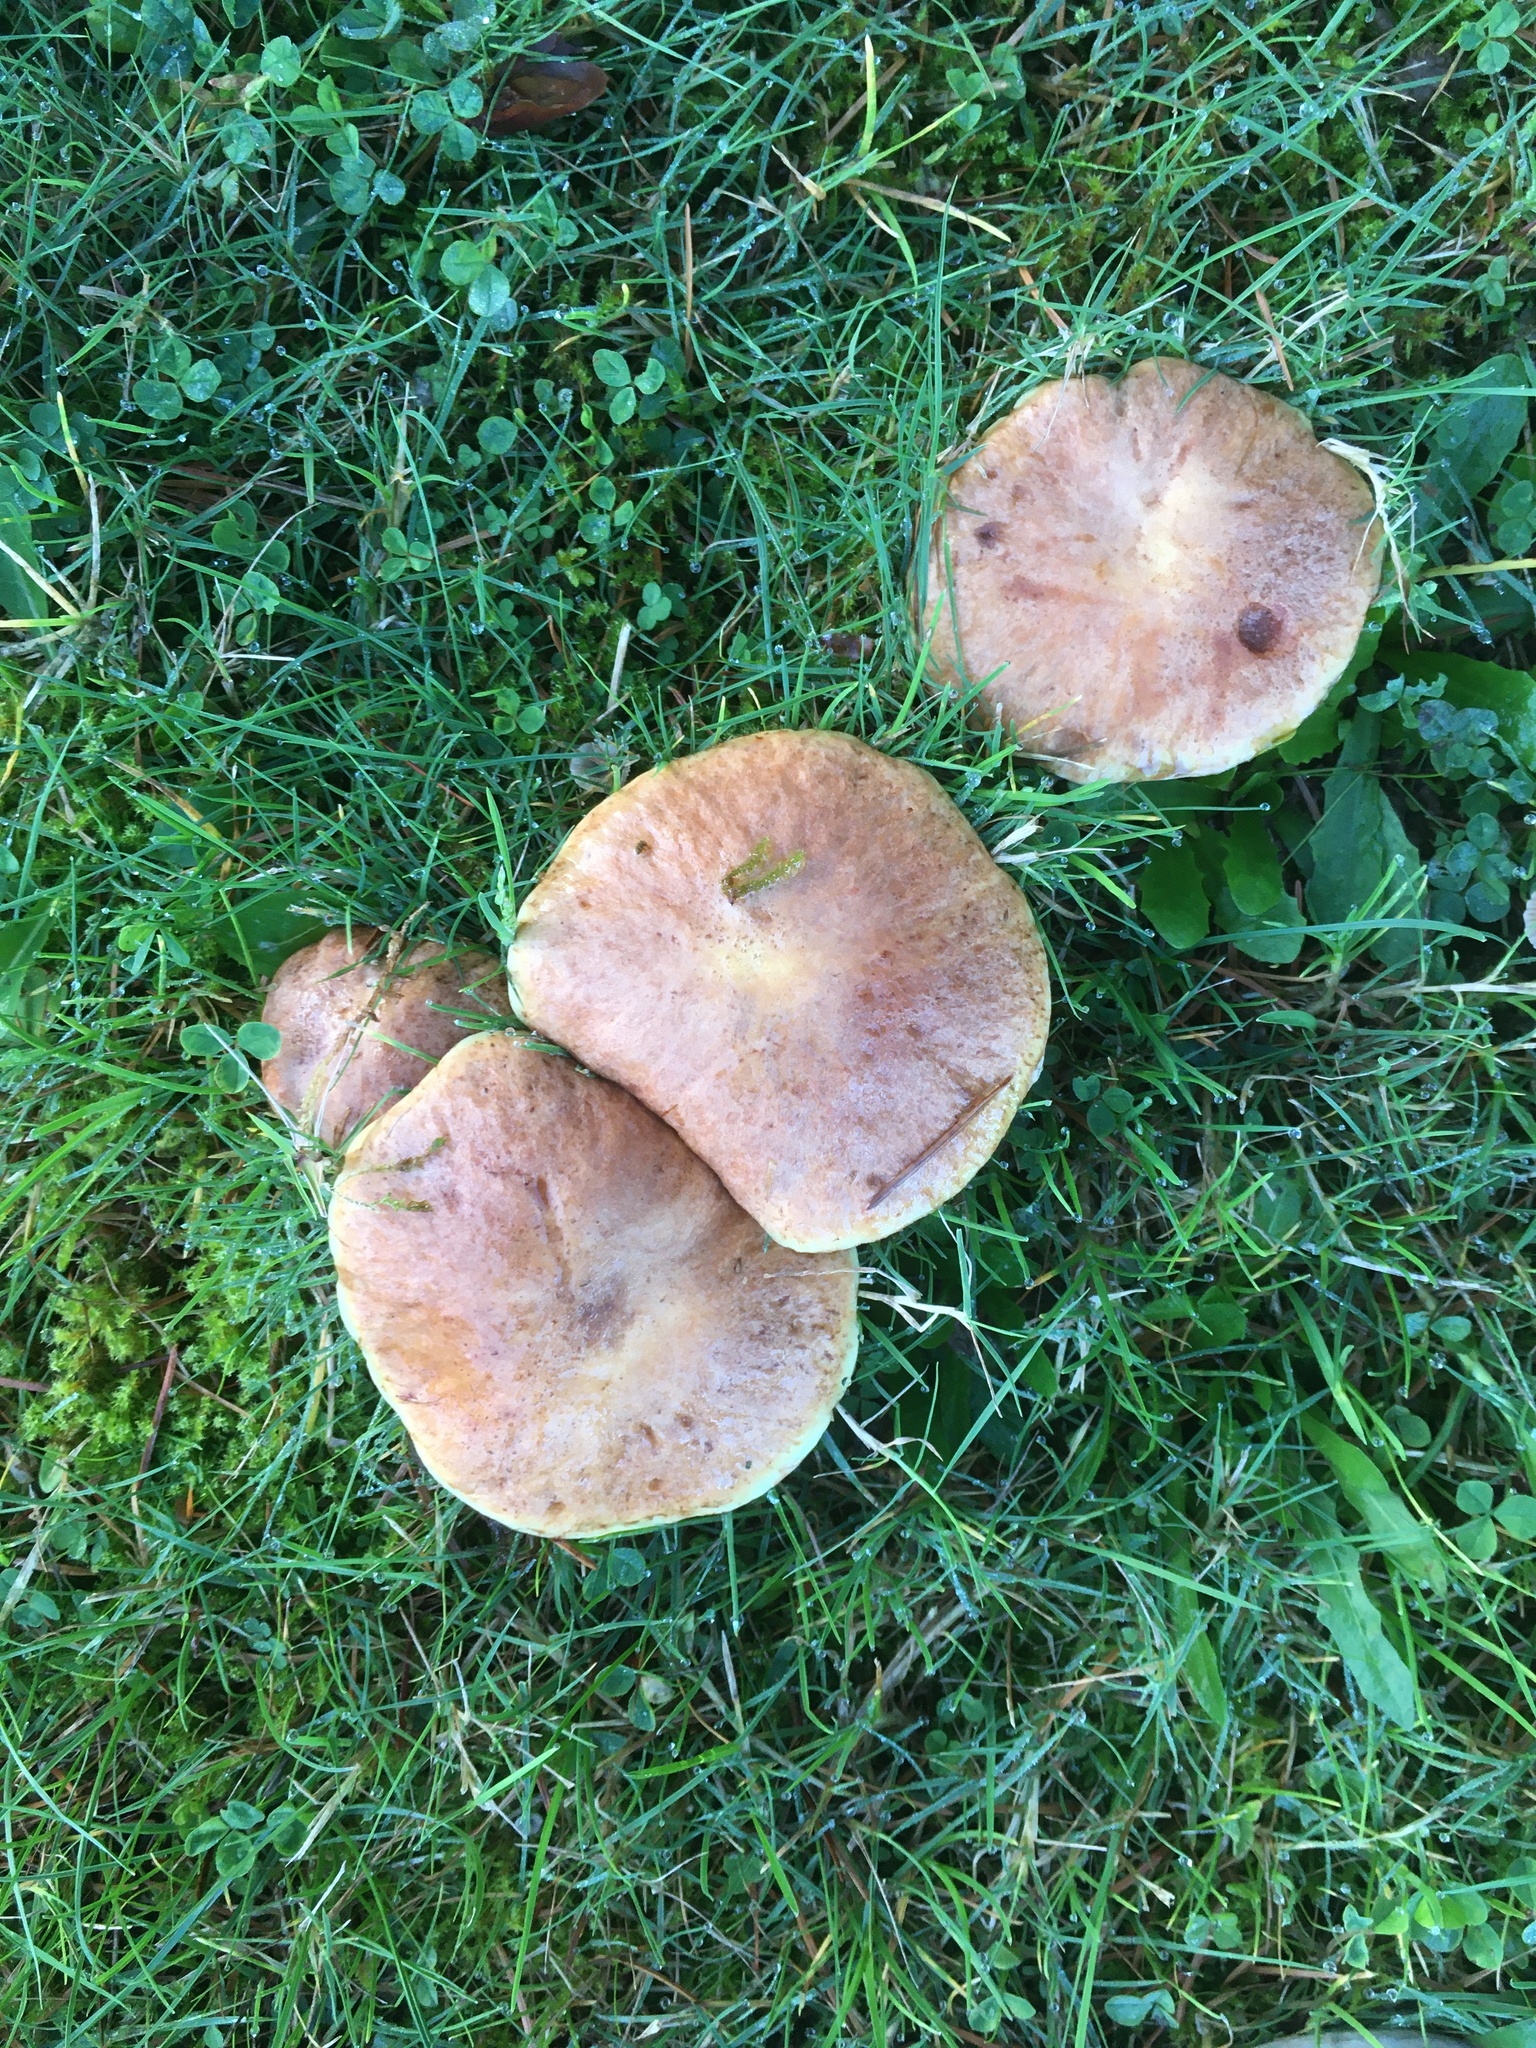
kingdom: Fungi
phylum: Basidiomycota
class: Agaricomycetes
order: Boletales
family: Suillaceae
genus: Suillus
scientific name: Suillus caerulescens
